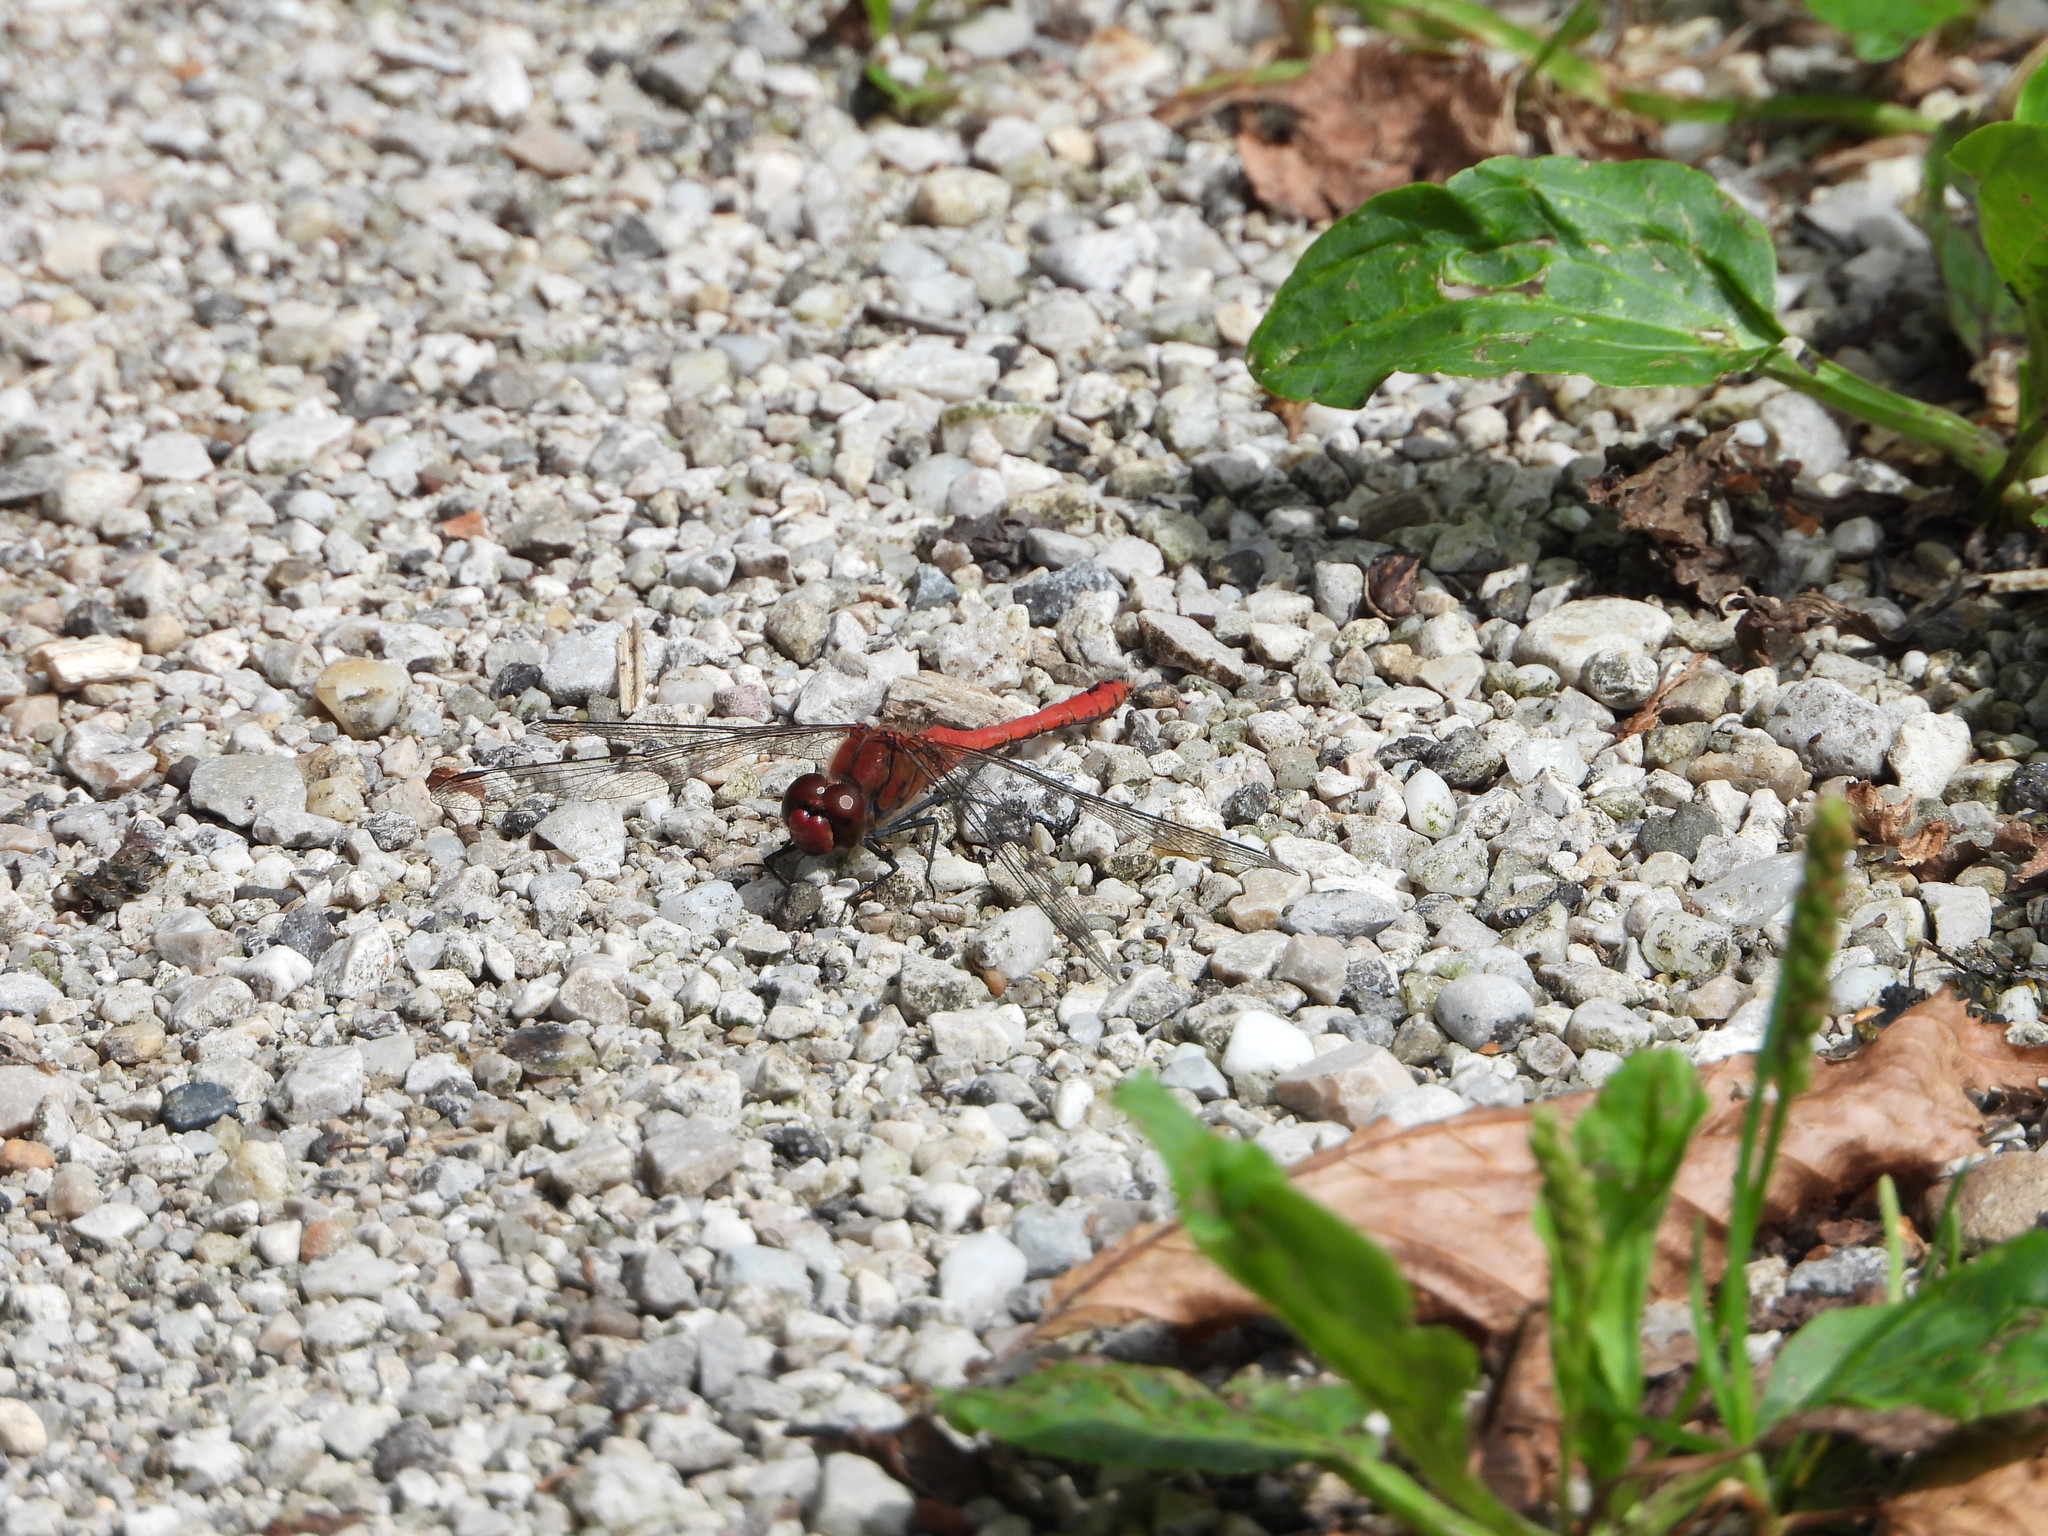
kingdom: Animalia
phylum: Arthropoda
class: Insecta
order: Odonata
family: Libellulidae
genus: Sympetrum
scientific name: Sympetrum sanguineum
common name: Ruddy darter
